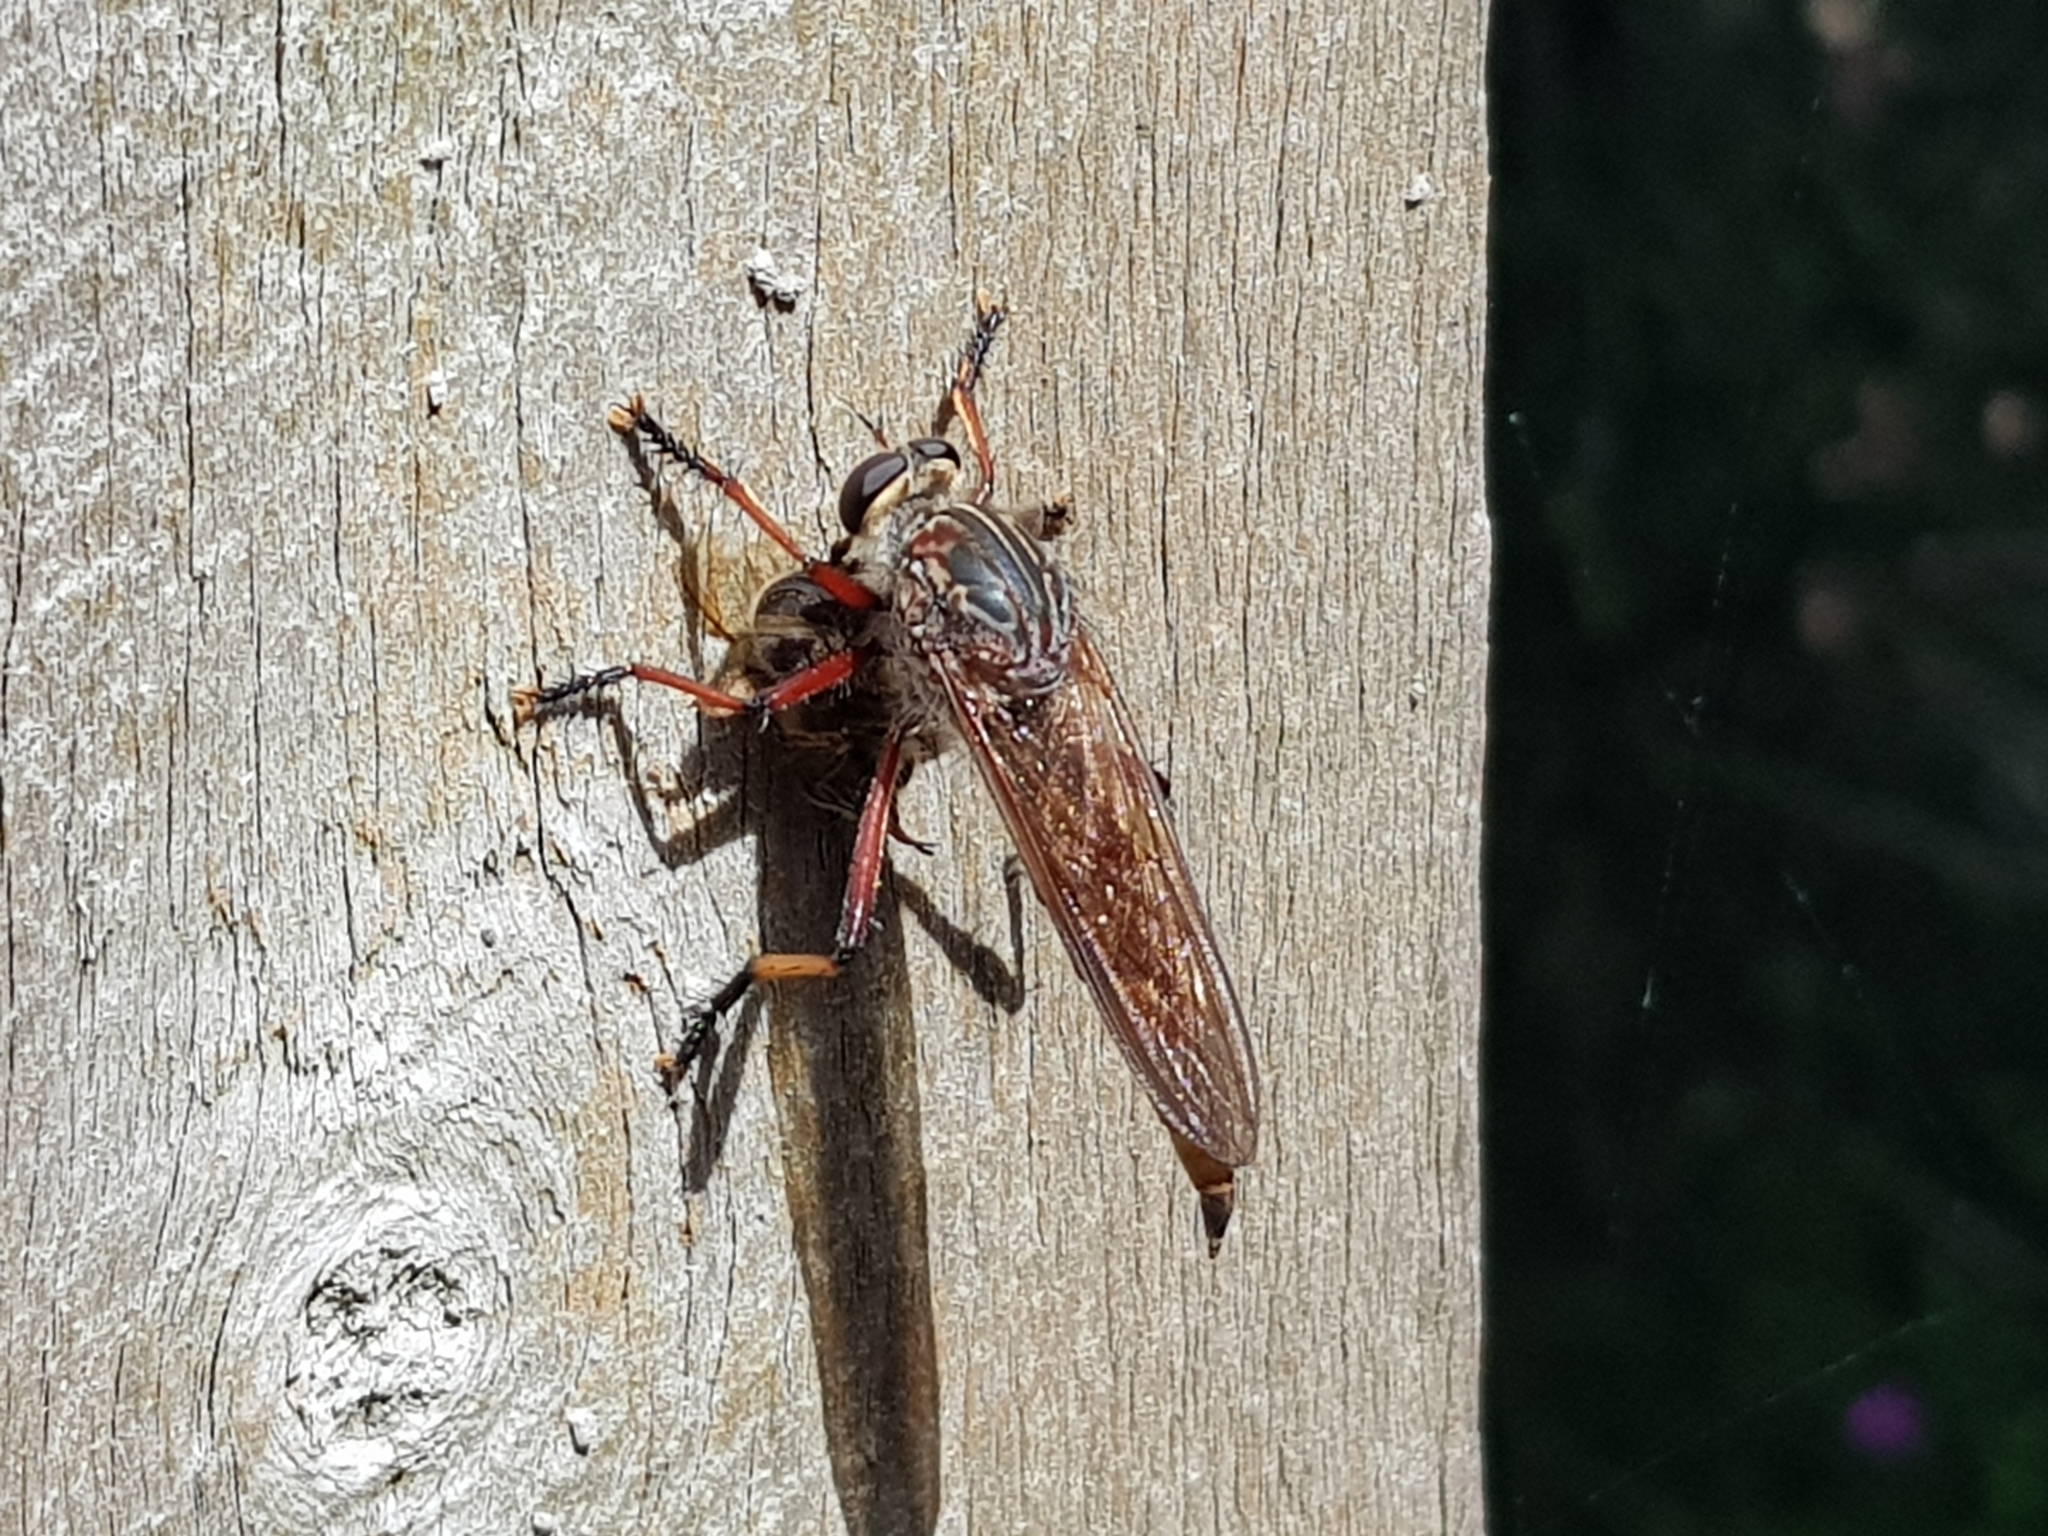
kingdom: Animalia
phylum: Arthropoda
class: Insecta
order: Diptera
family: Asilidae
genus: Colepia
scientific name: Colepia rufiventris
